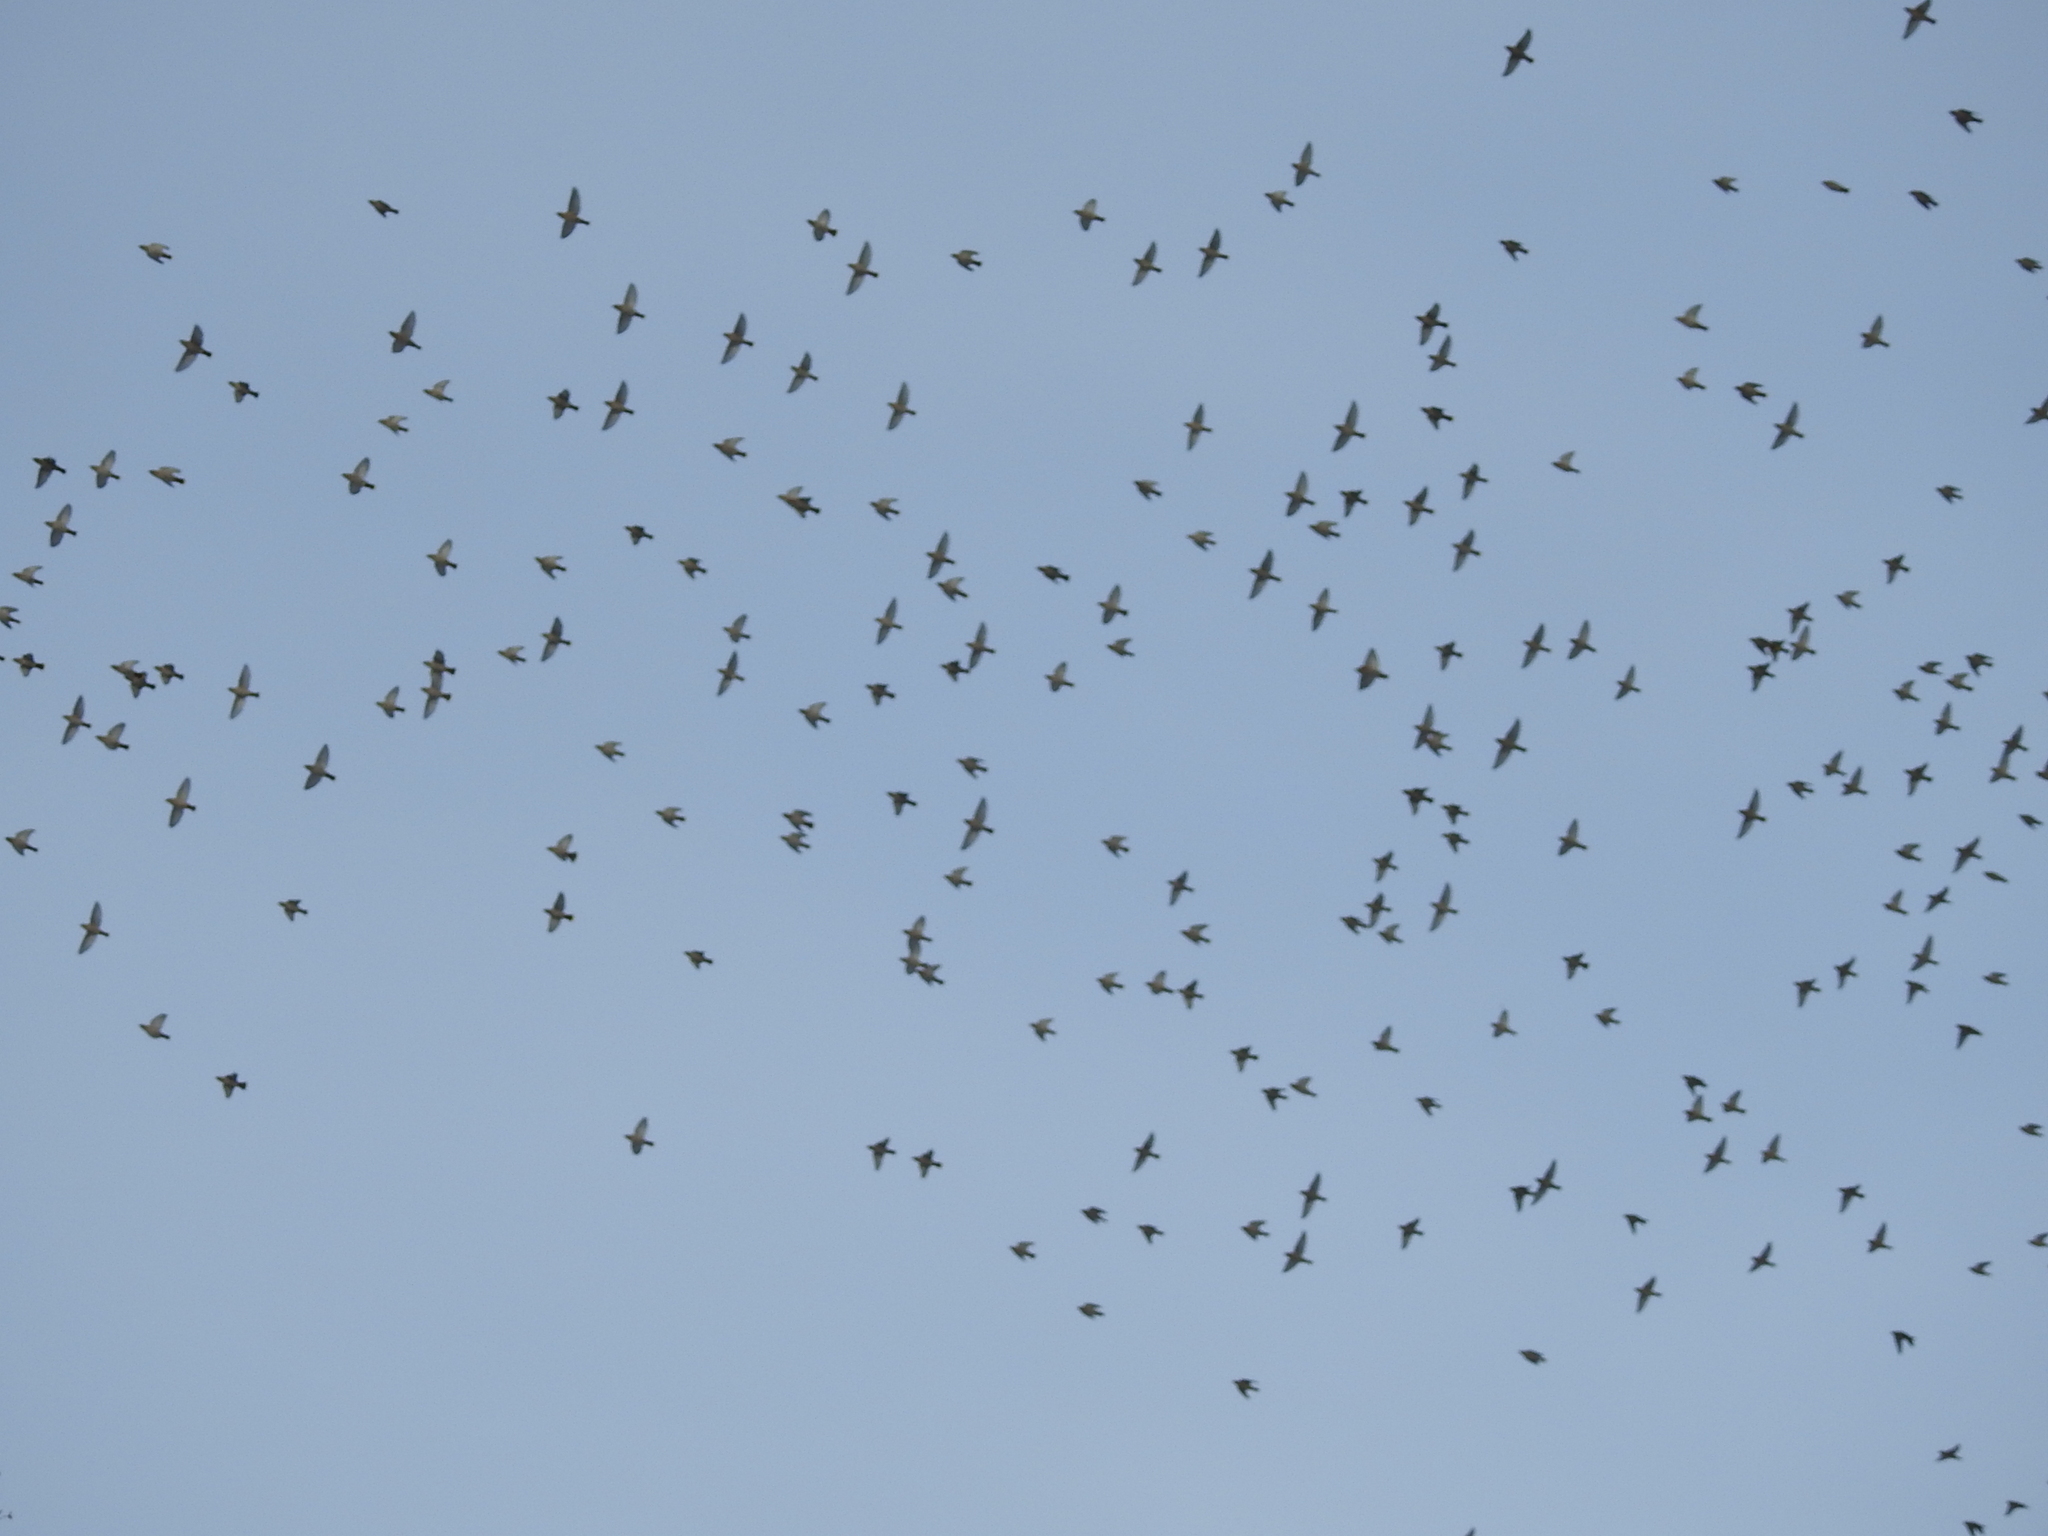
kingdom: Animalia
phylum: Chordata
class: Aves
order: Passeriformes
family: Bombycillidae
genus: Bombycilla
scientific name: Bombycilla garrulus
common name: Bohemian waxwing
